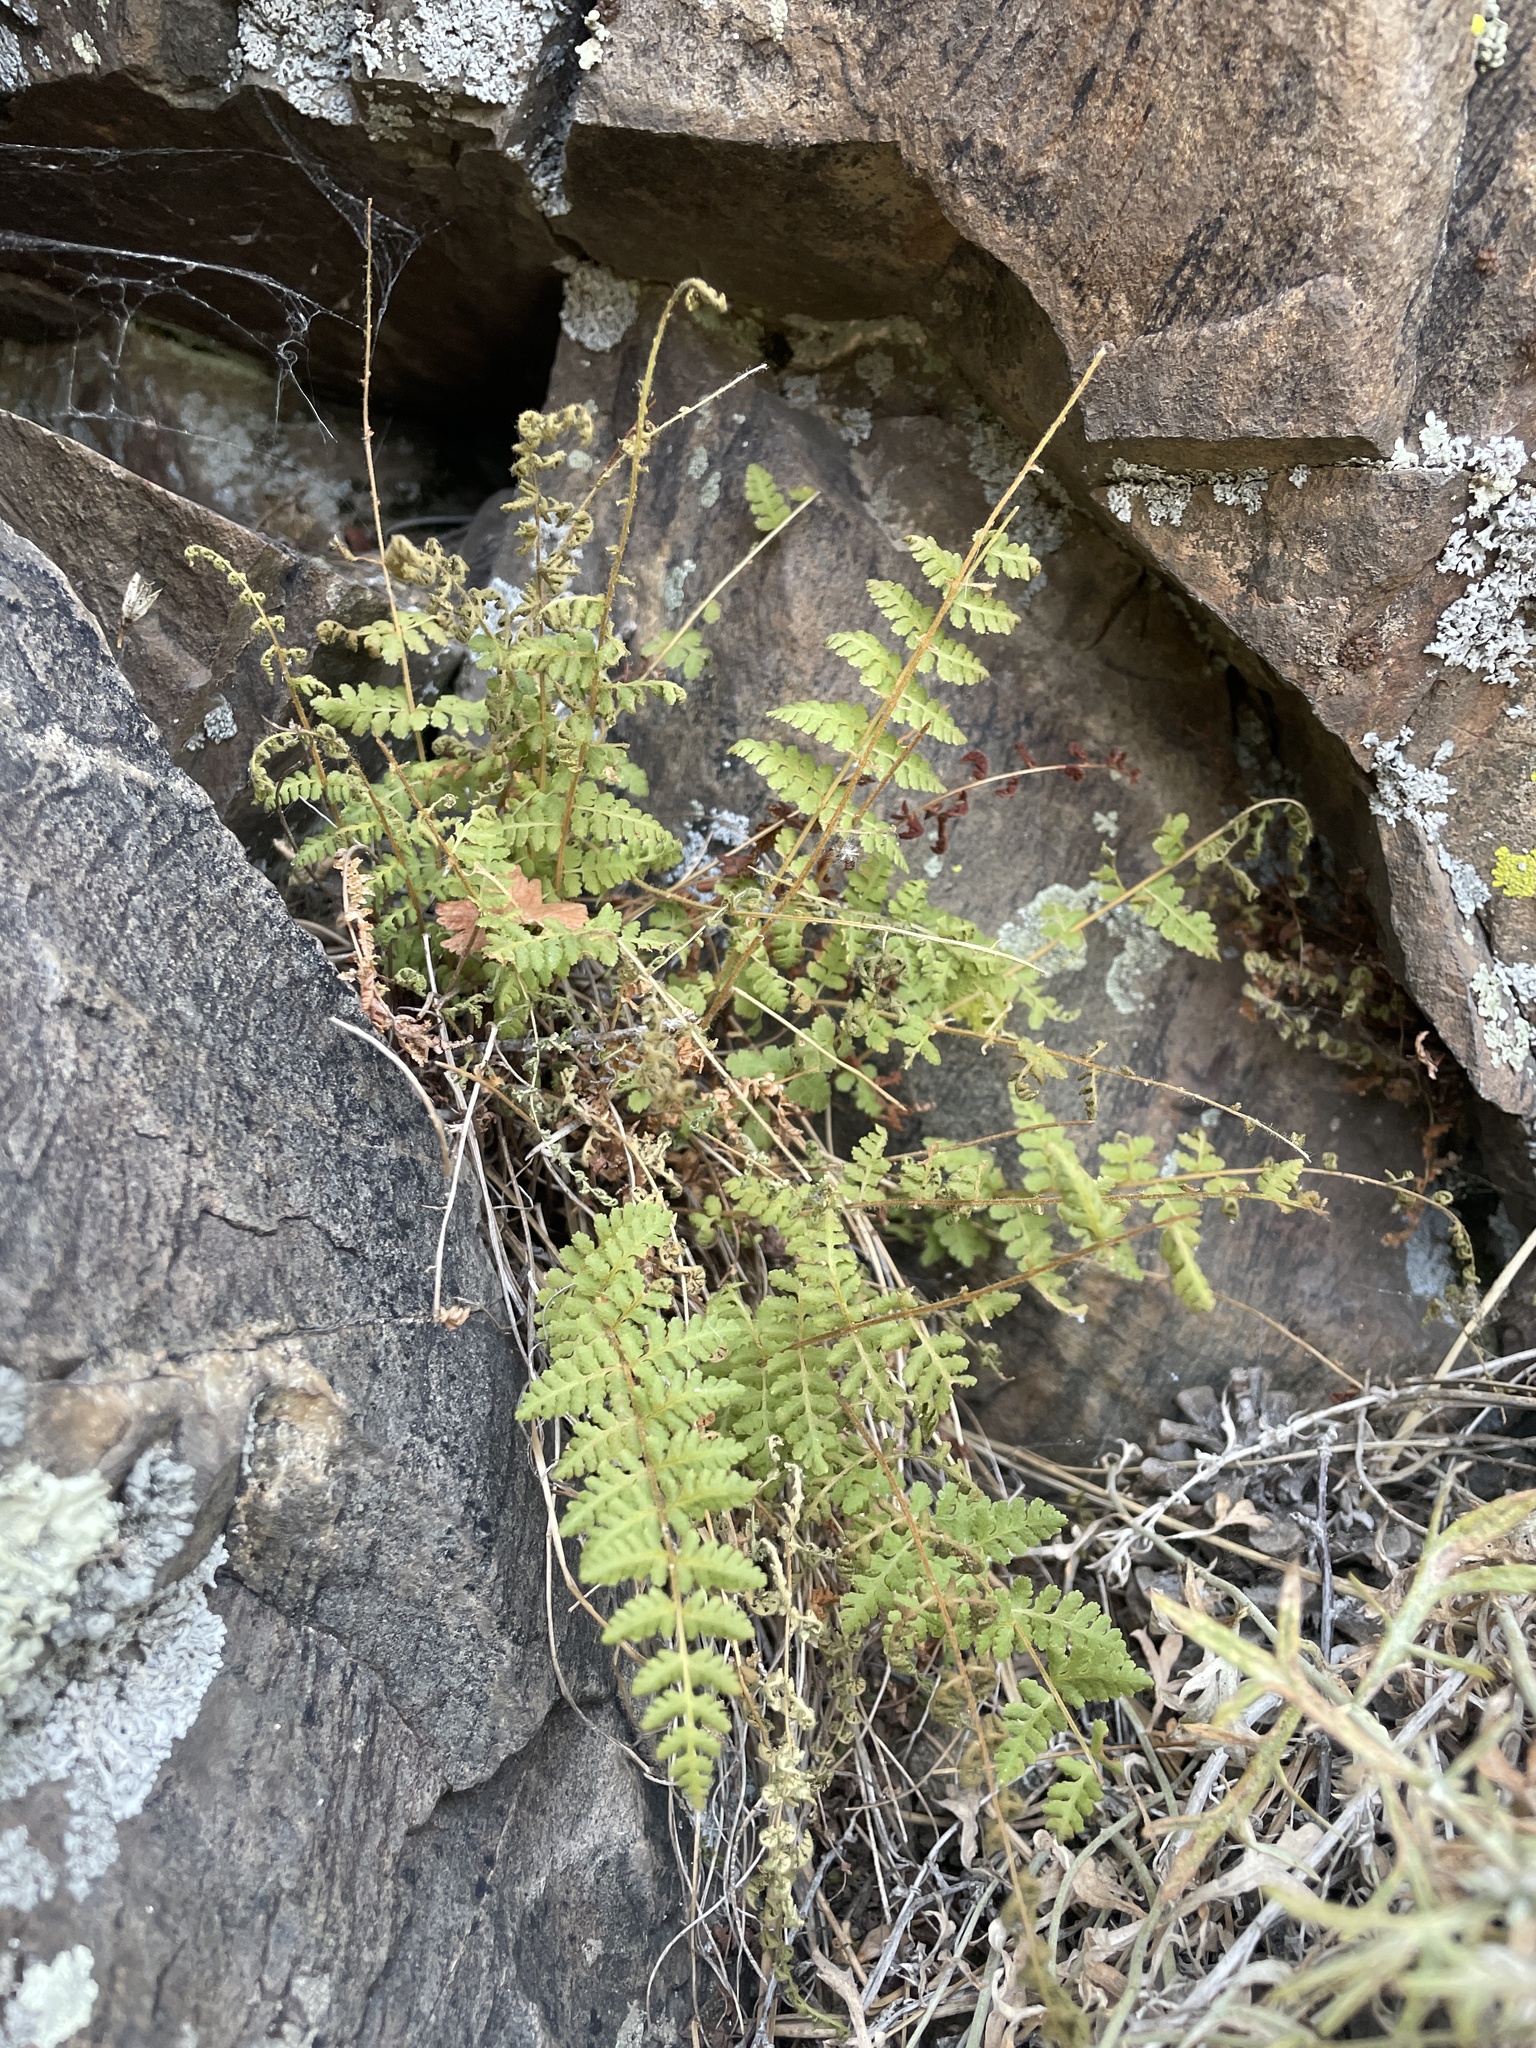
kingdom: Plantae
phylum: Tracheophyta
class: Polypodiopsida
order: Polypodiales
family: Woodsiaceae
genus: Physematium
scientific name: Physematium scopulinum
